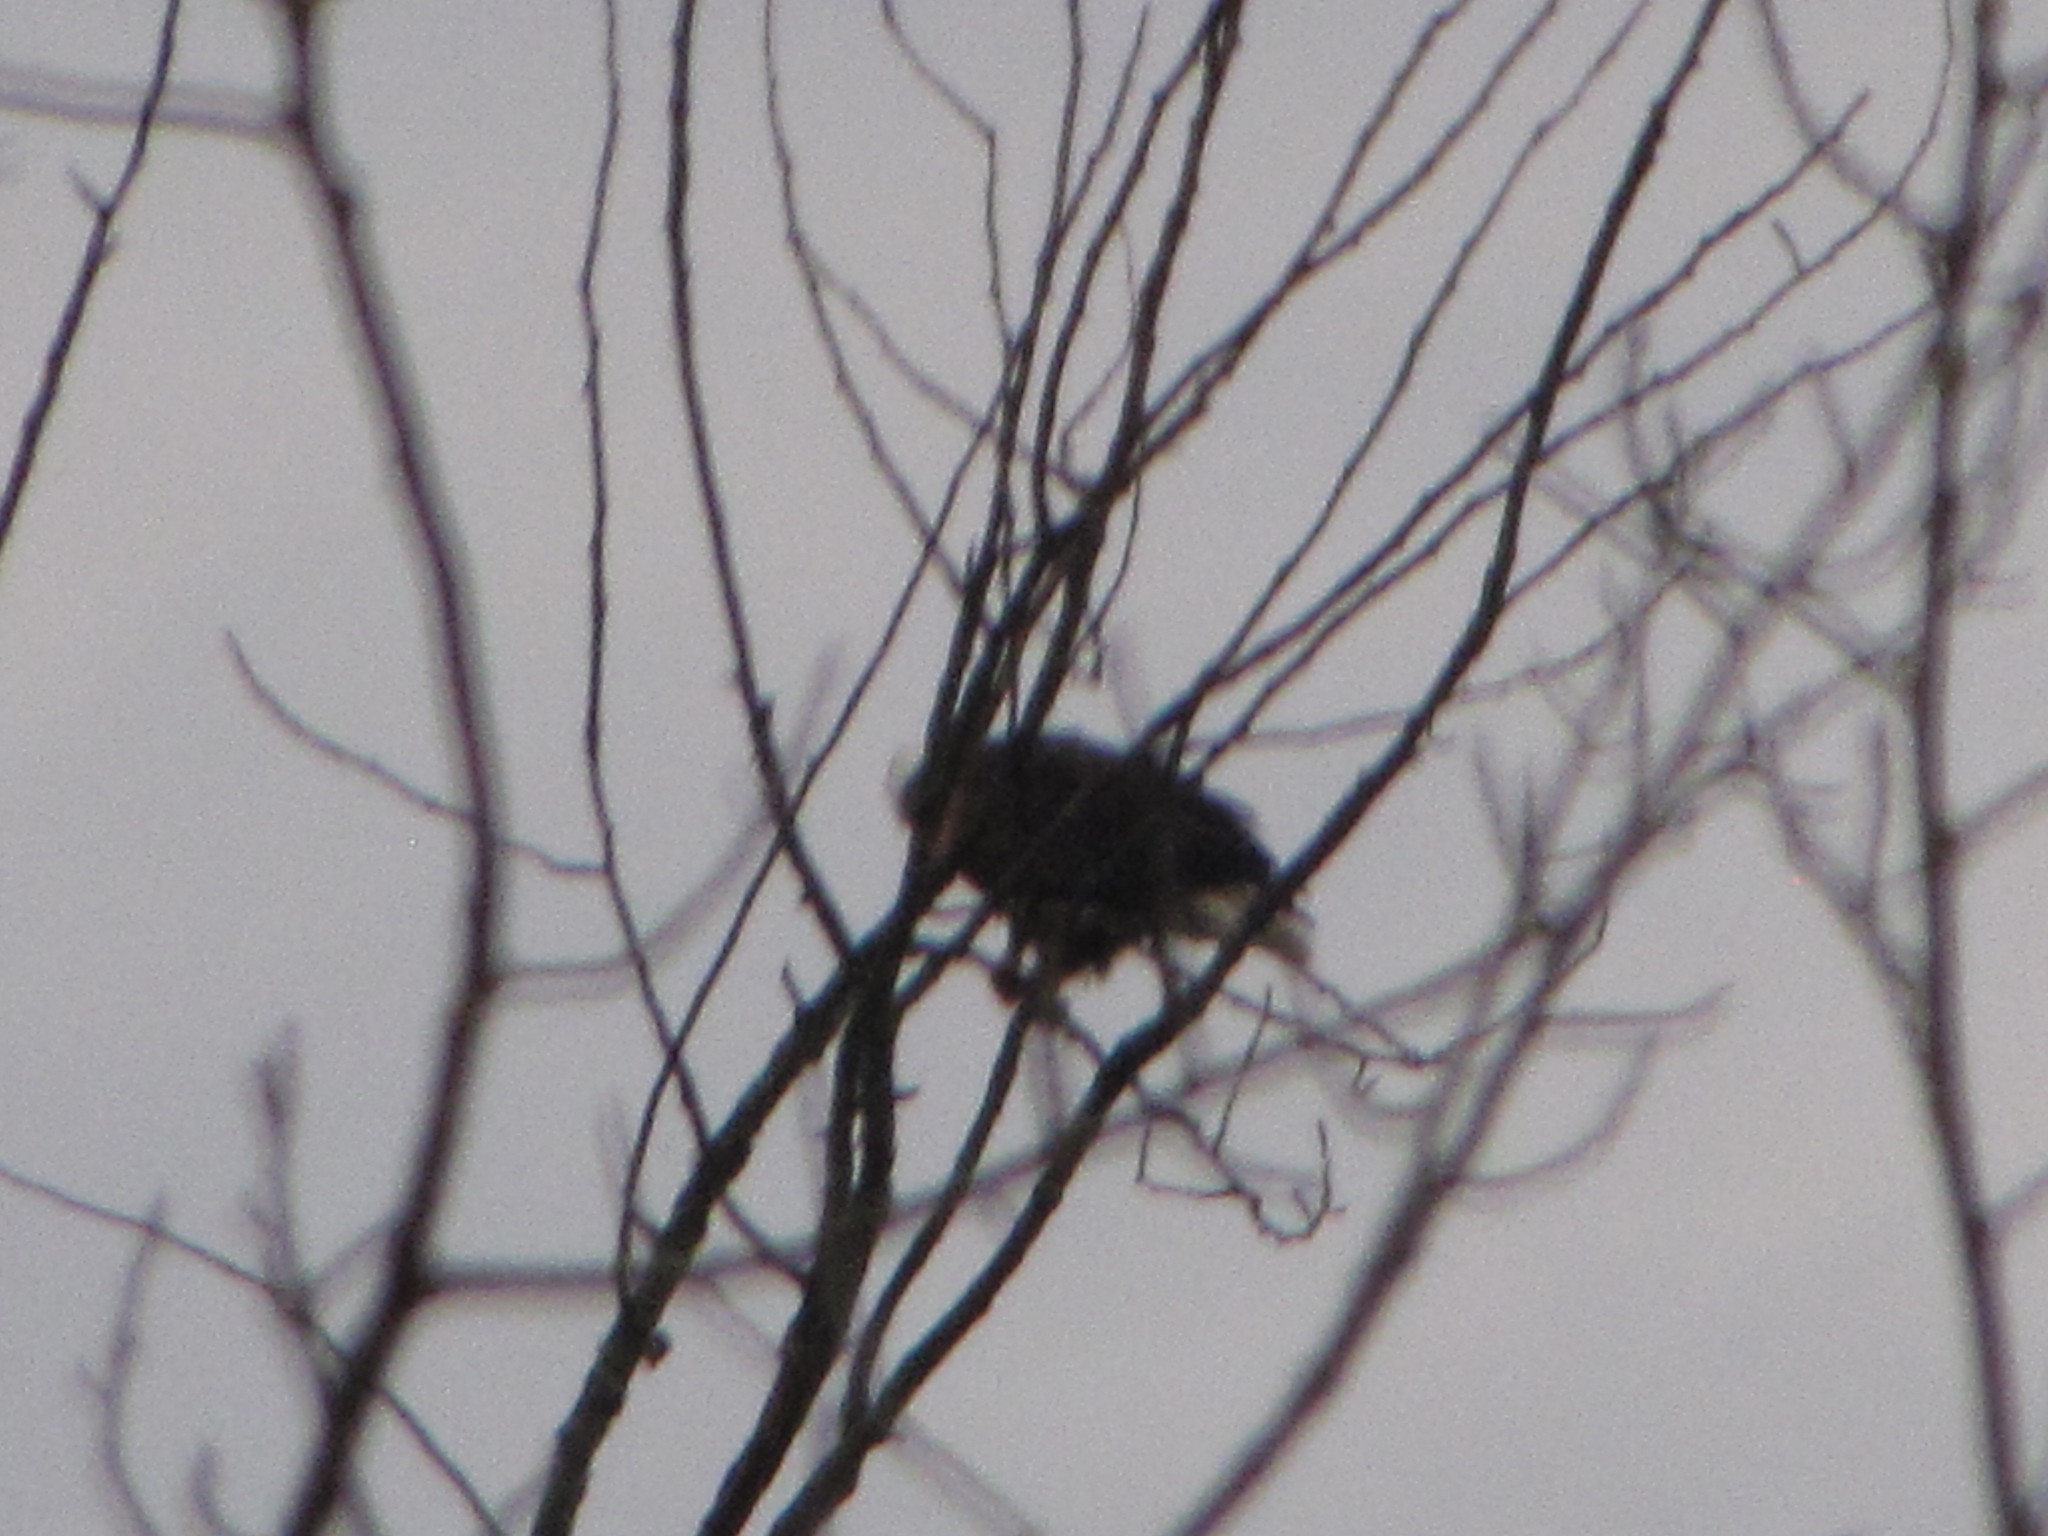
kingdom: Animalia
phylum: Chordata
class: Aves
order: Accipitriformes
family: Accipitridae
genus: Haliaeetus
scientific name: Haliaeetus leucocephalus
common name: Bald eagle
